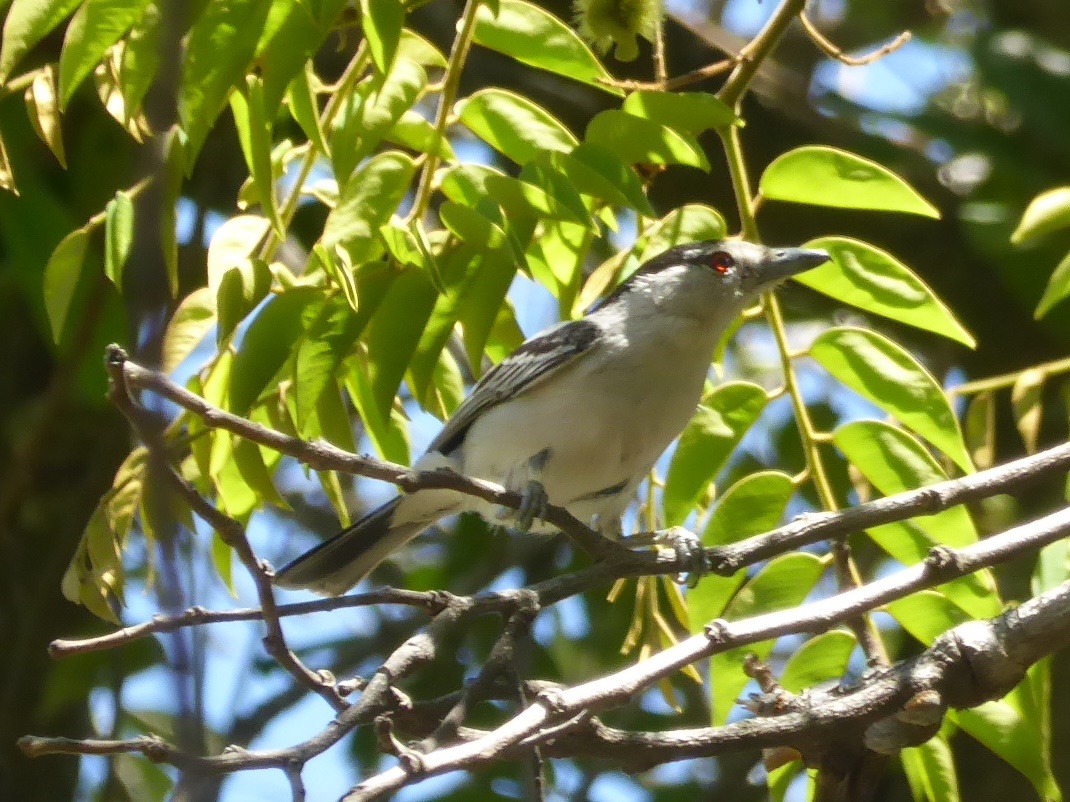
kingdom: Animalia
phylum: Chordata
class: Aves
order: Passeriformes
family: Malaconotidae
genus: Dryoscopus
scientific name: Dryoscopus cubla
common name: Black-backed puffback
